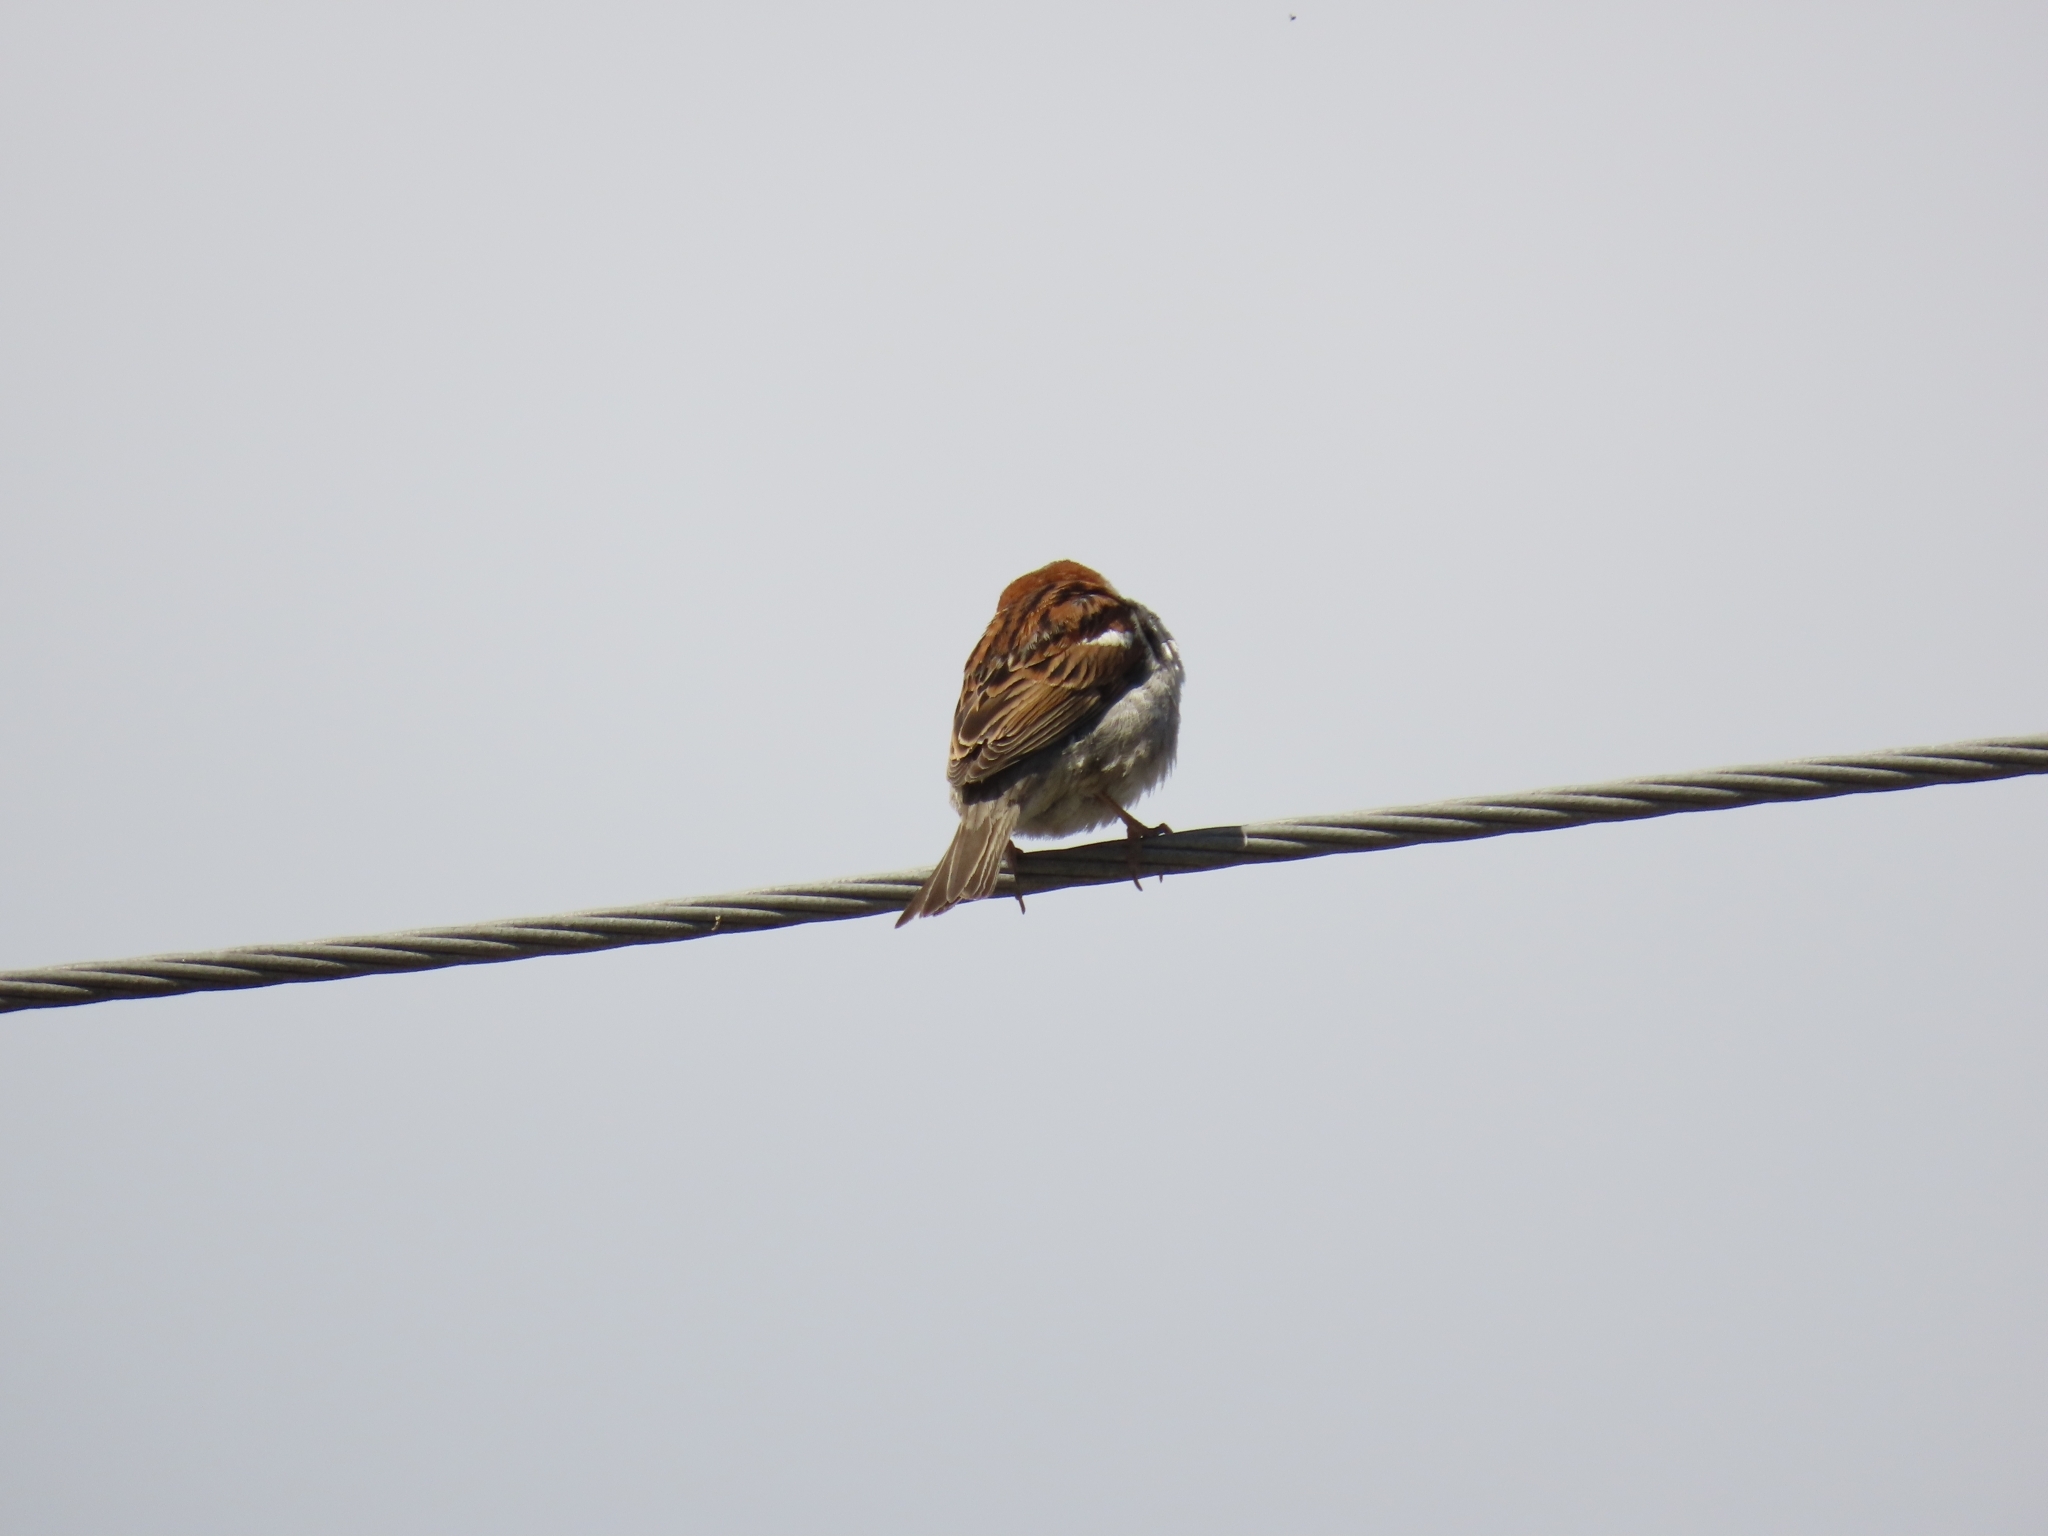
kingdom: Animalia
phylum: Chordata
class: Aves
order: Passeriformes
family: Passeridae
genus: Passer
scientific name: Passer domesticus
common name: House sparrow
